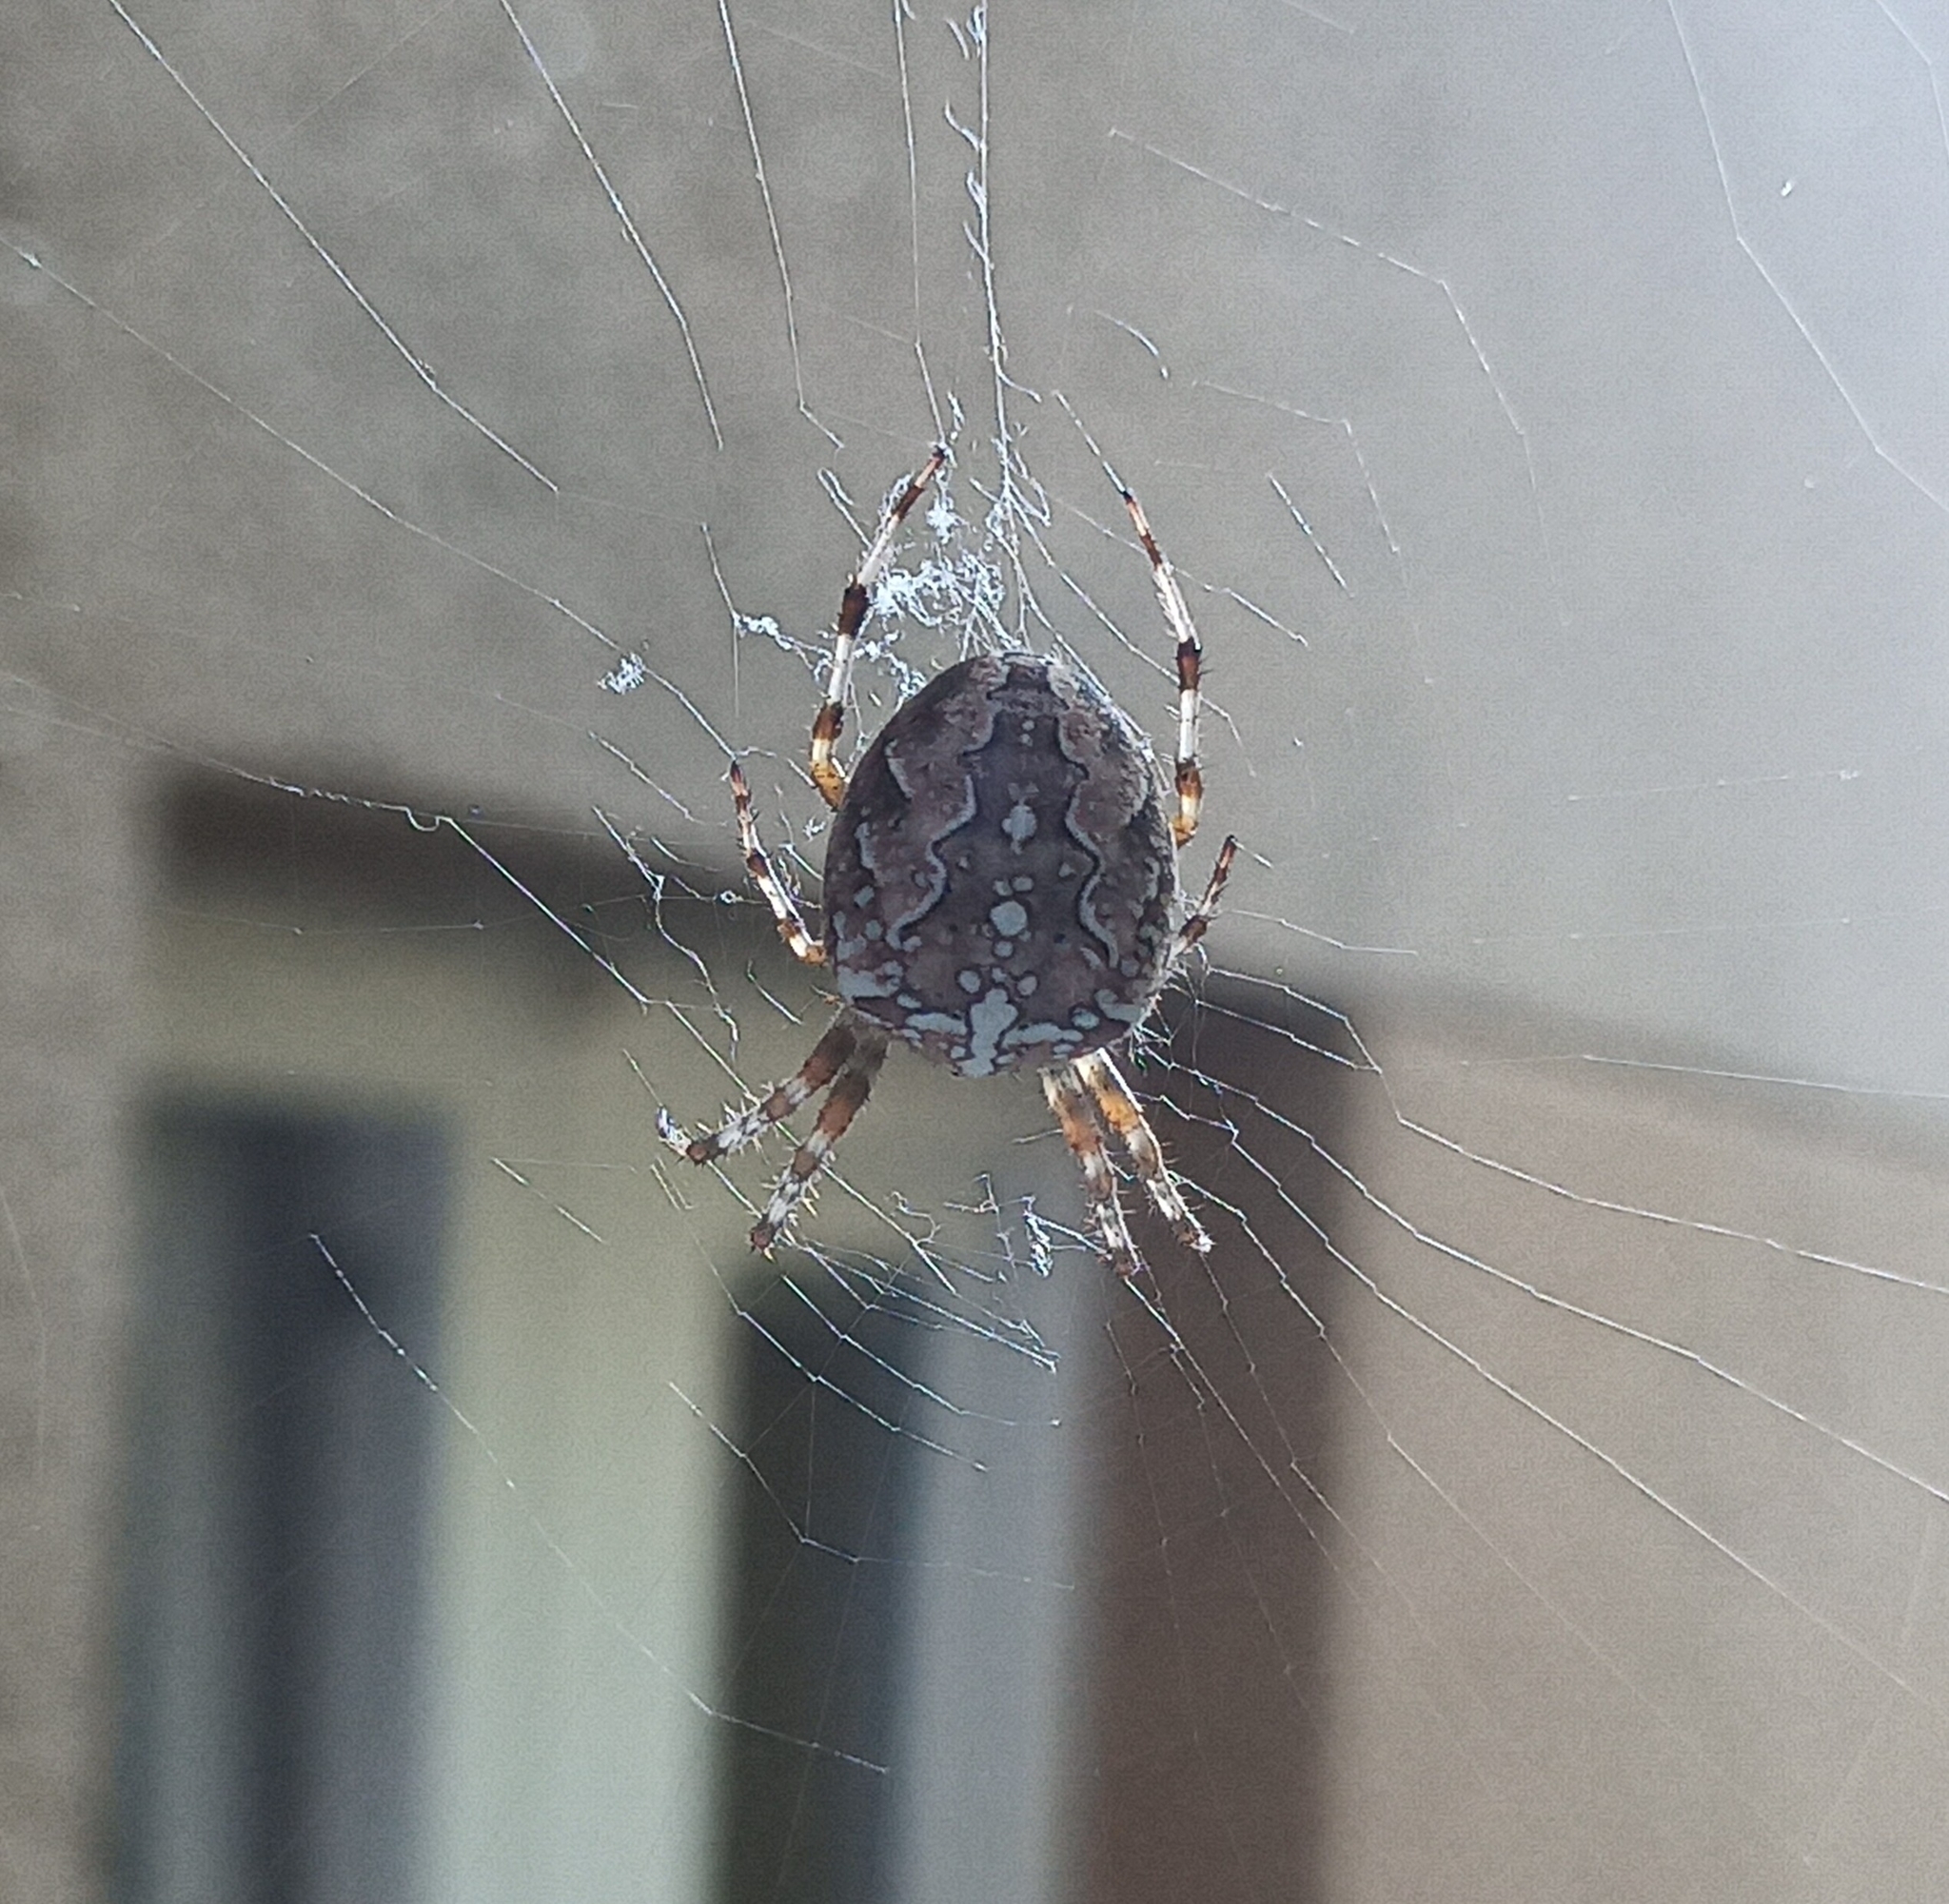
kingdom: Animalia
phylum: Arthropoda
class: Arachnida
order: Araneae
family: Araneidae
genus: Araneus
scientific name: Araneus diadematus
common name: Cross orbweaver
